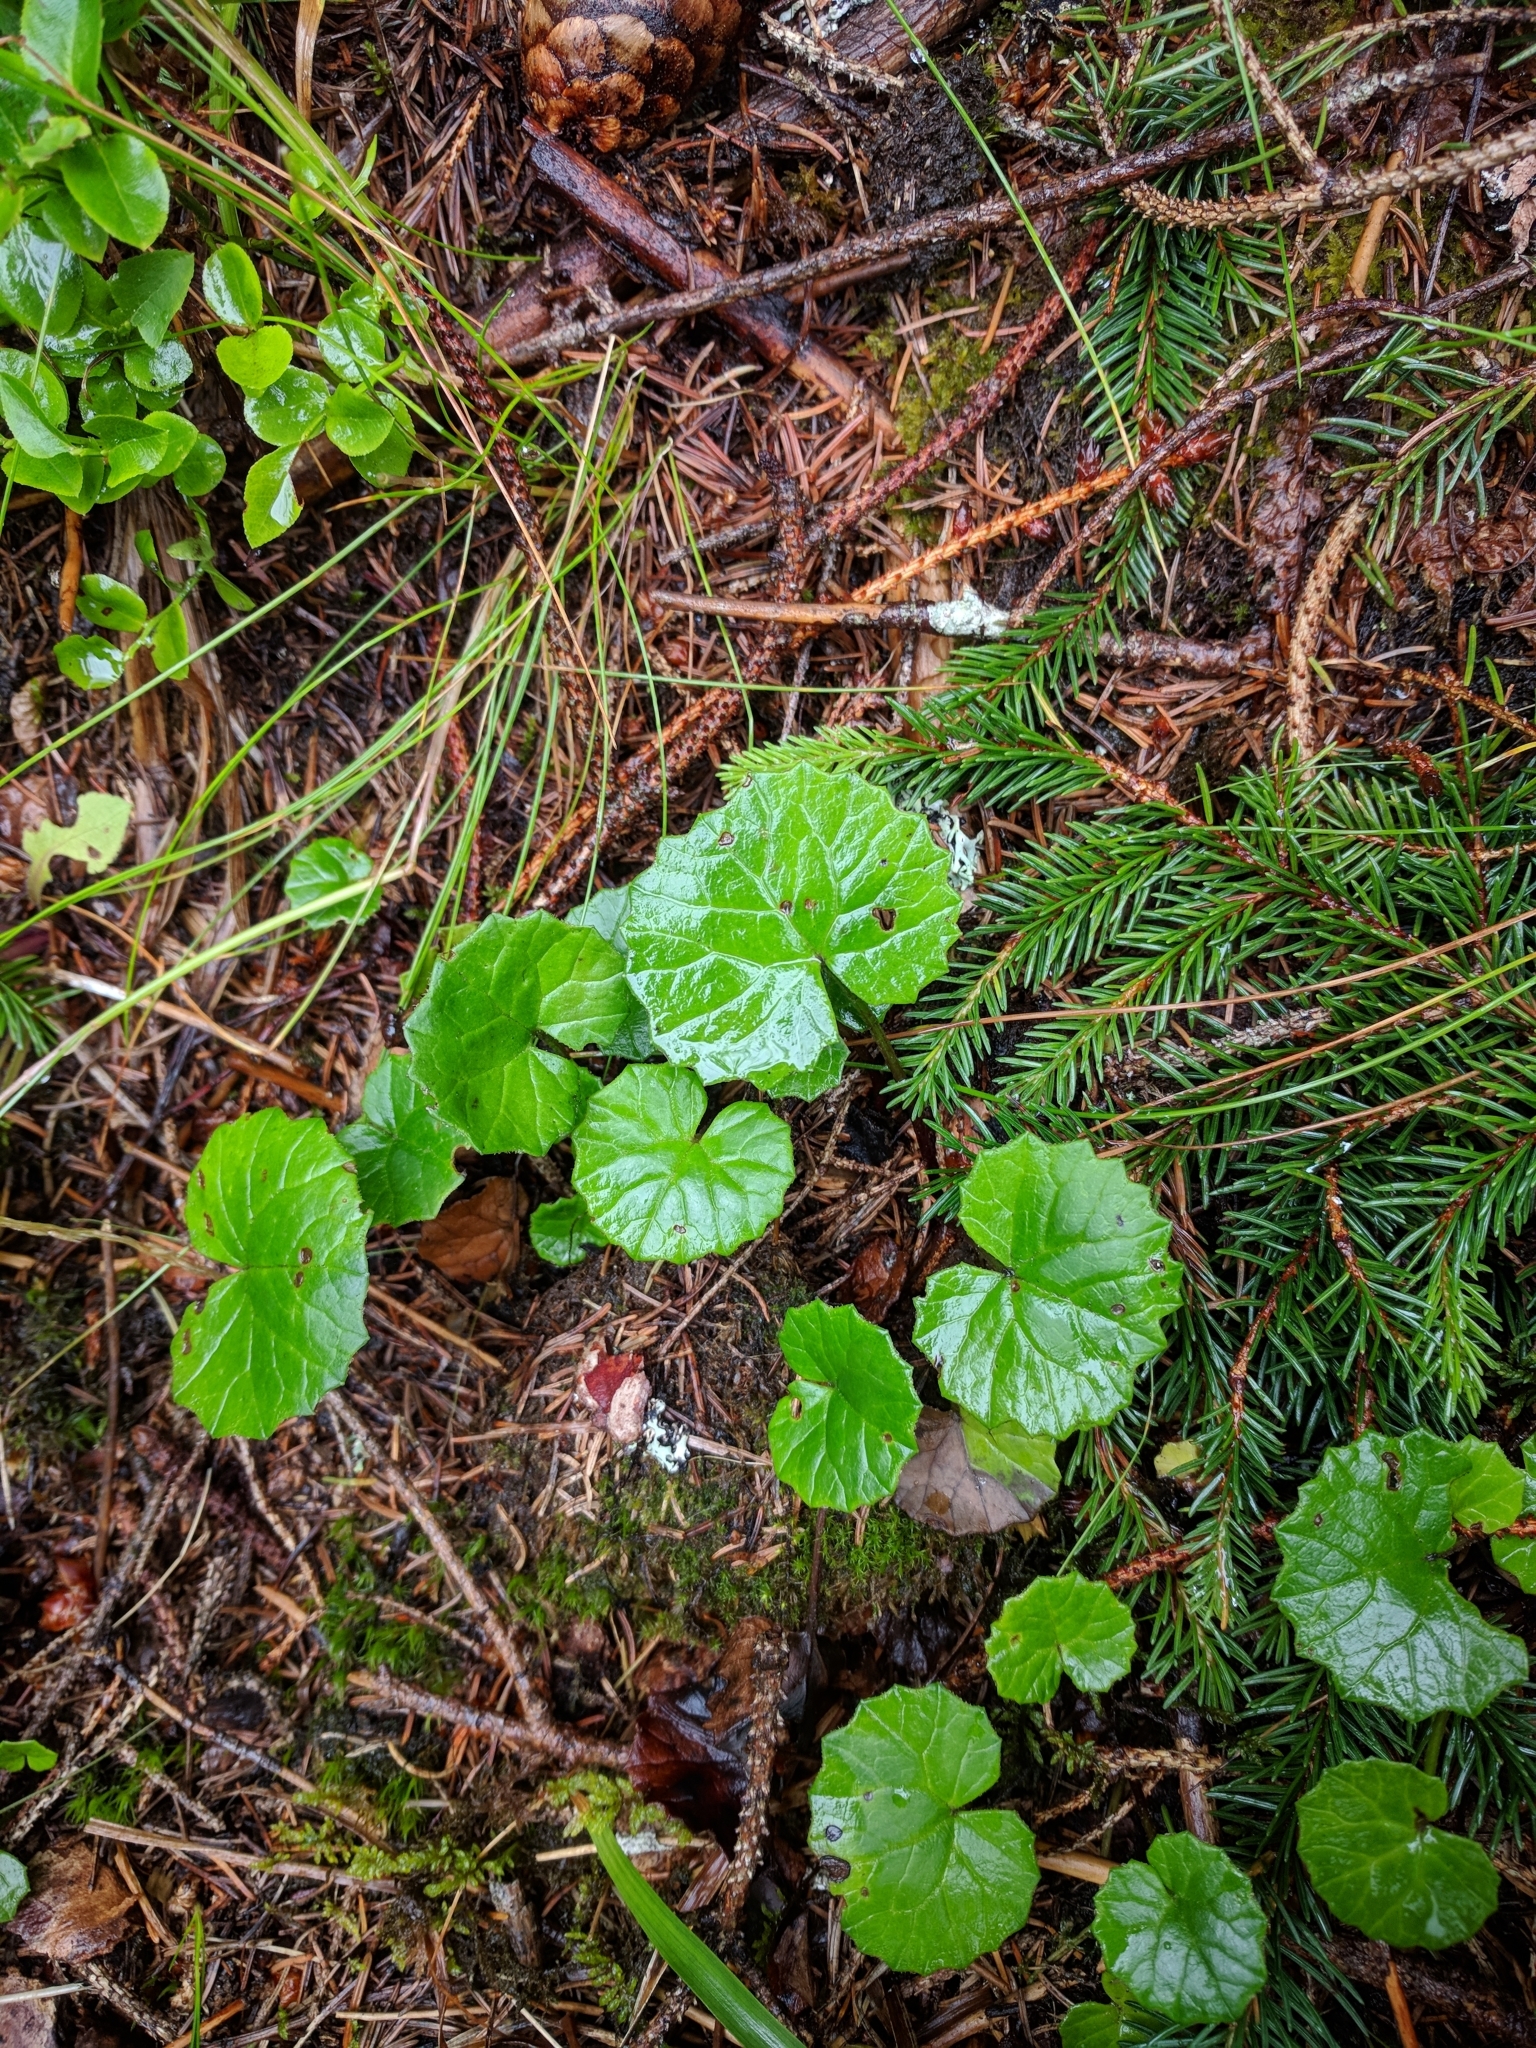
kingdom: Plantae
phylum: Tracheophyta
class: Magnoliopsida
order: Asterales
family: Asteraceae
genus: Homogyne
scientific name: Homogyne alpina
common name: Purple colt's-foot
